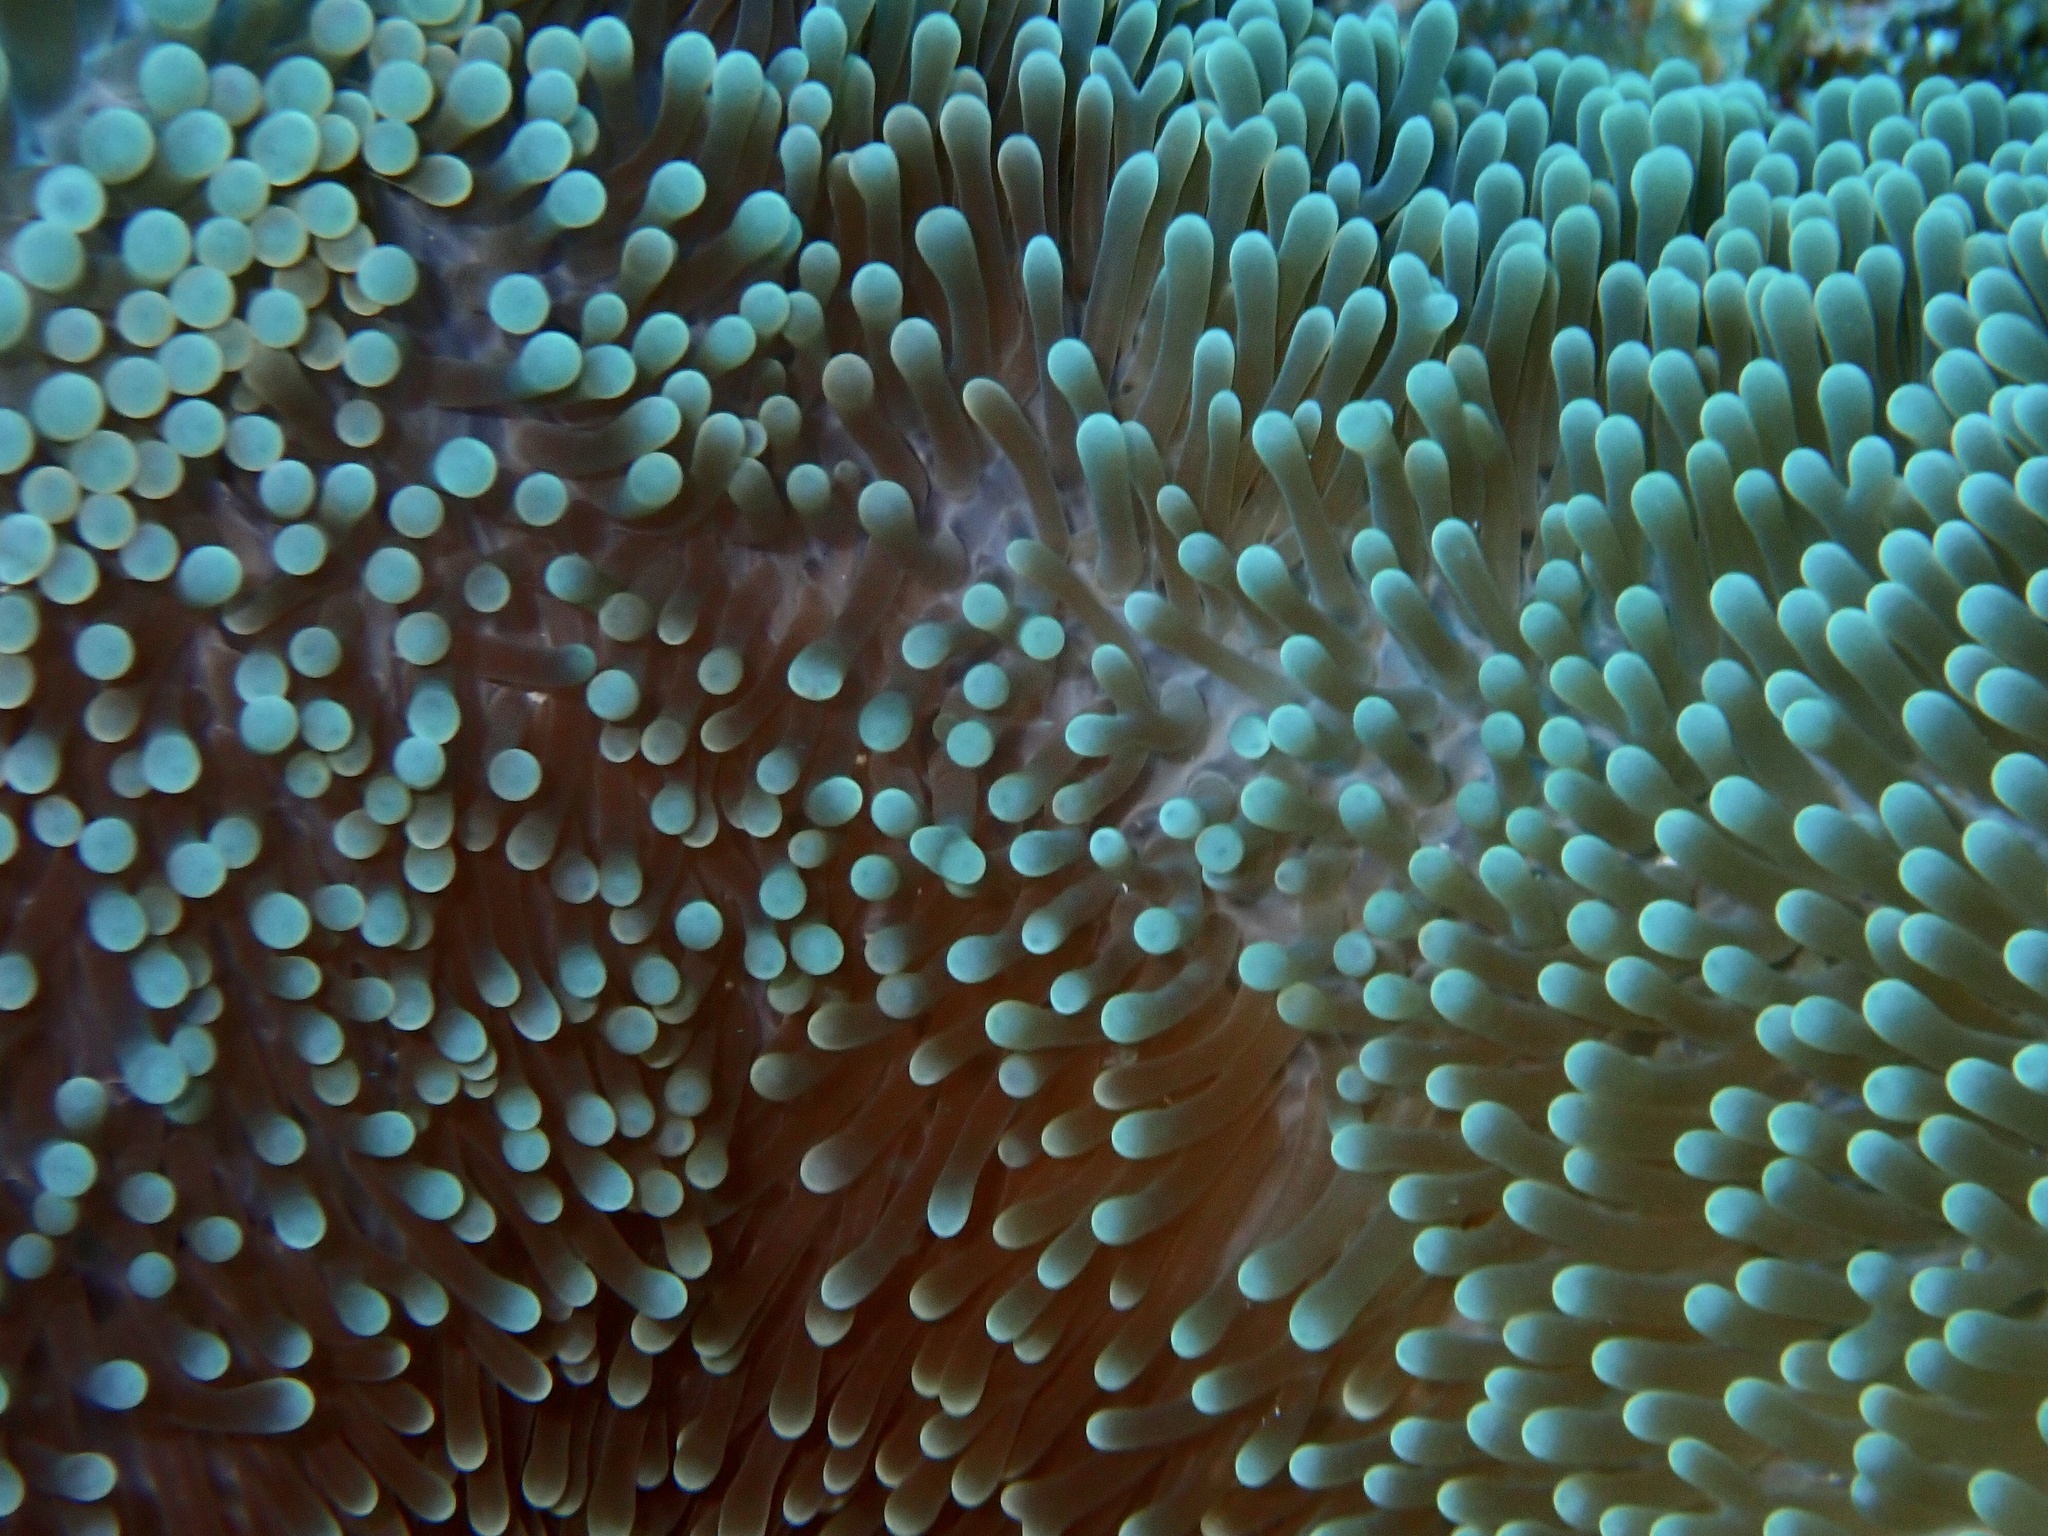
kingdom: Animalia
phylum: Cnidaria
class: Anthozoa
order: Actiniaria
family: Stichodactylidae
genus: Radianthus
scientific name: Radianthus magnifica
